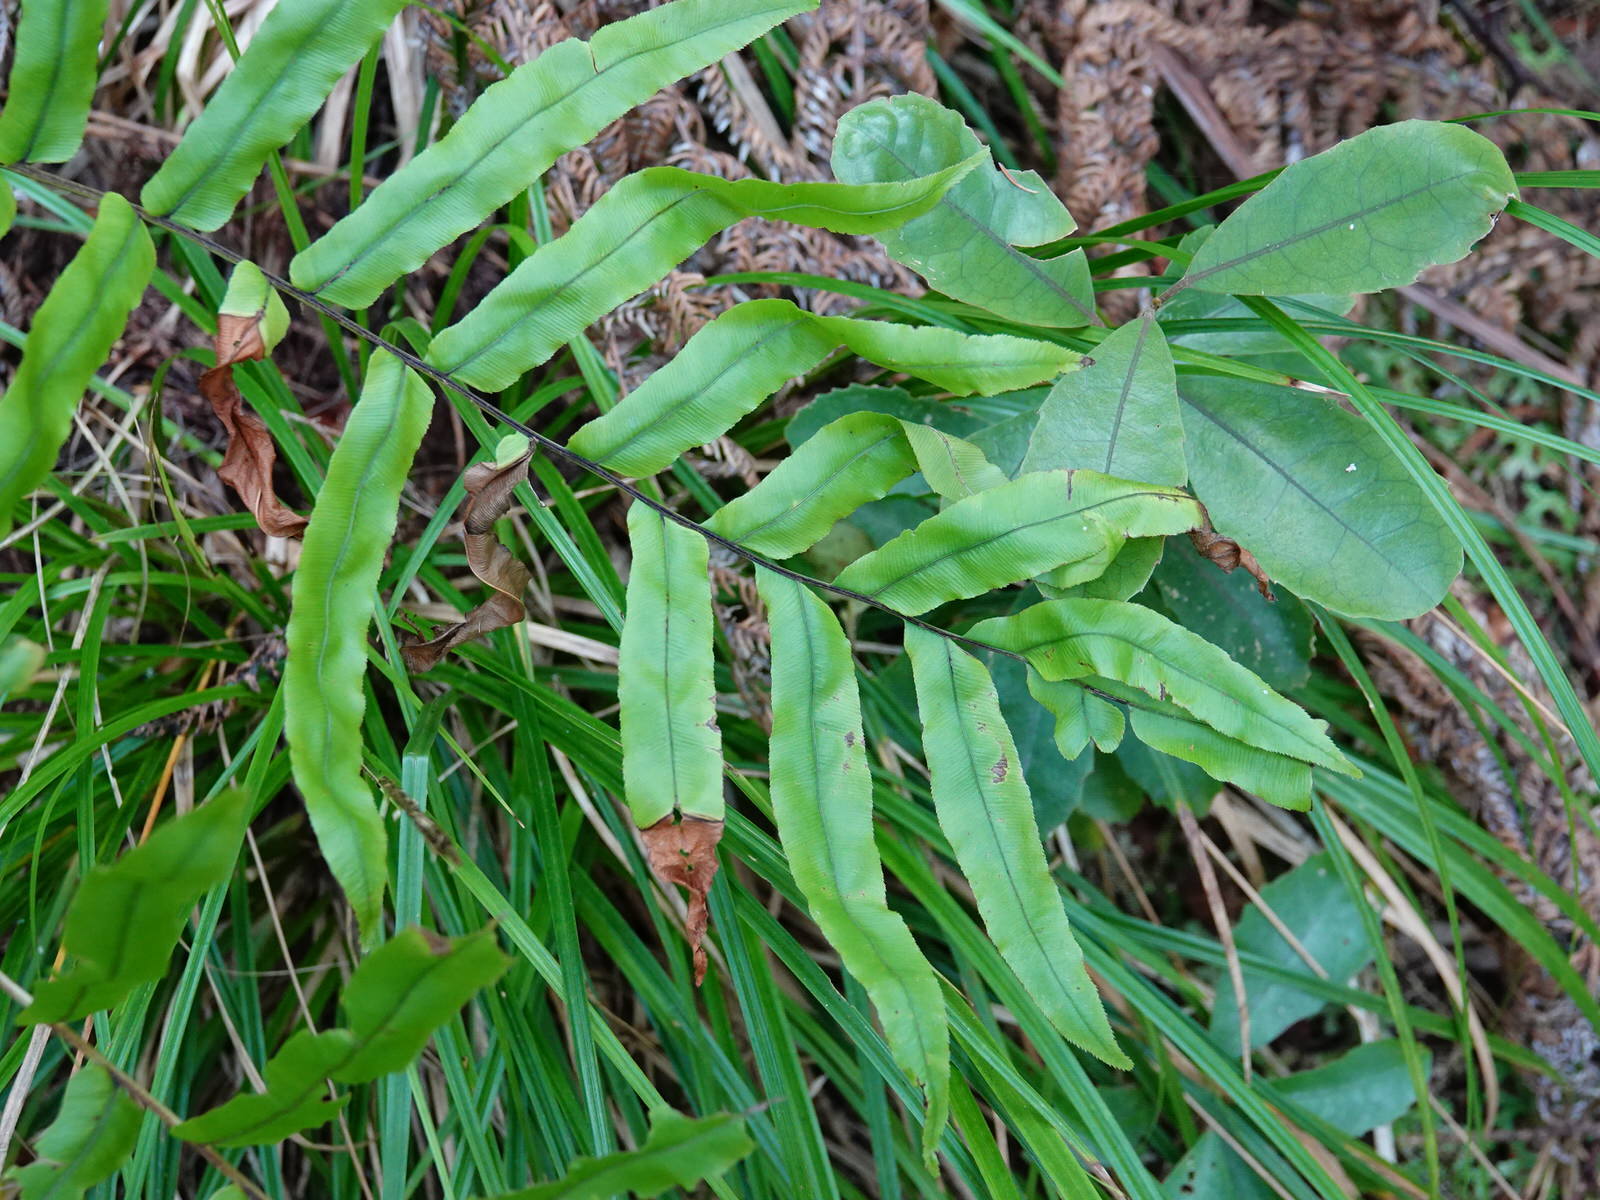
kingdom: Plantae
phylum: Tracheophyta
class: Polypodiopsida
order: Polypodiales
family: Blechnaceae
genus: Parablechnum
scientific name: Parablechnum minus
